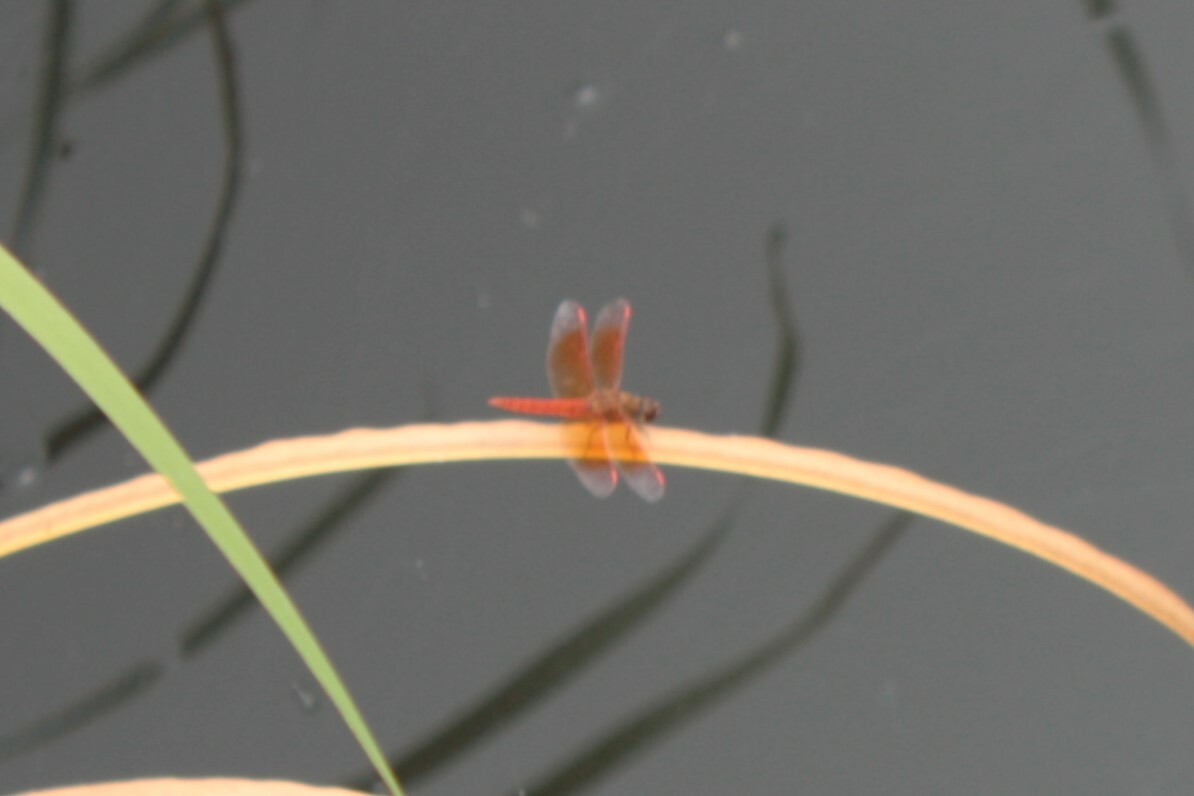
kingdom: Animalia
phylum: Arthropoda
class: Insecta
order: Odonata
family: Libellulidae
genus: Brachythemis
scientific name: Brachythemis contaminata
